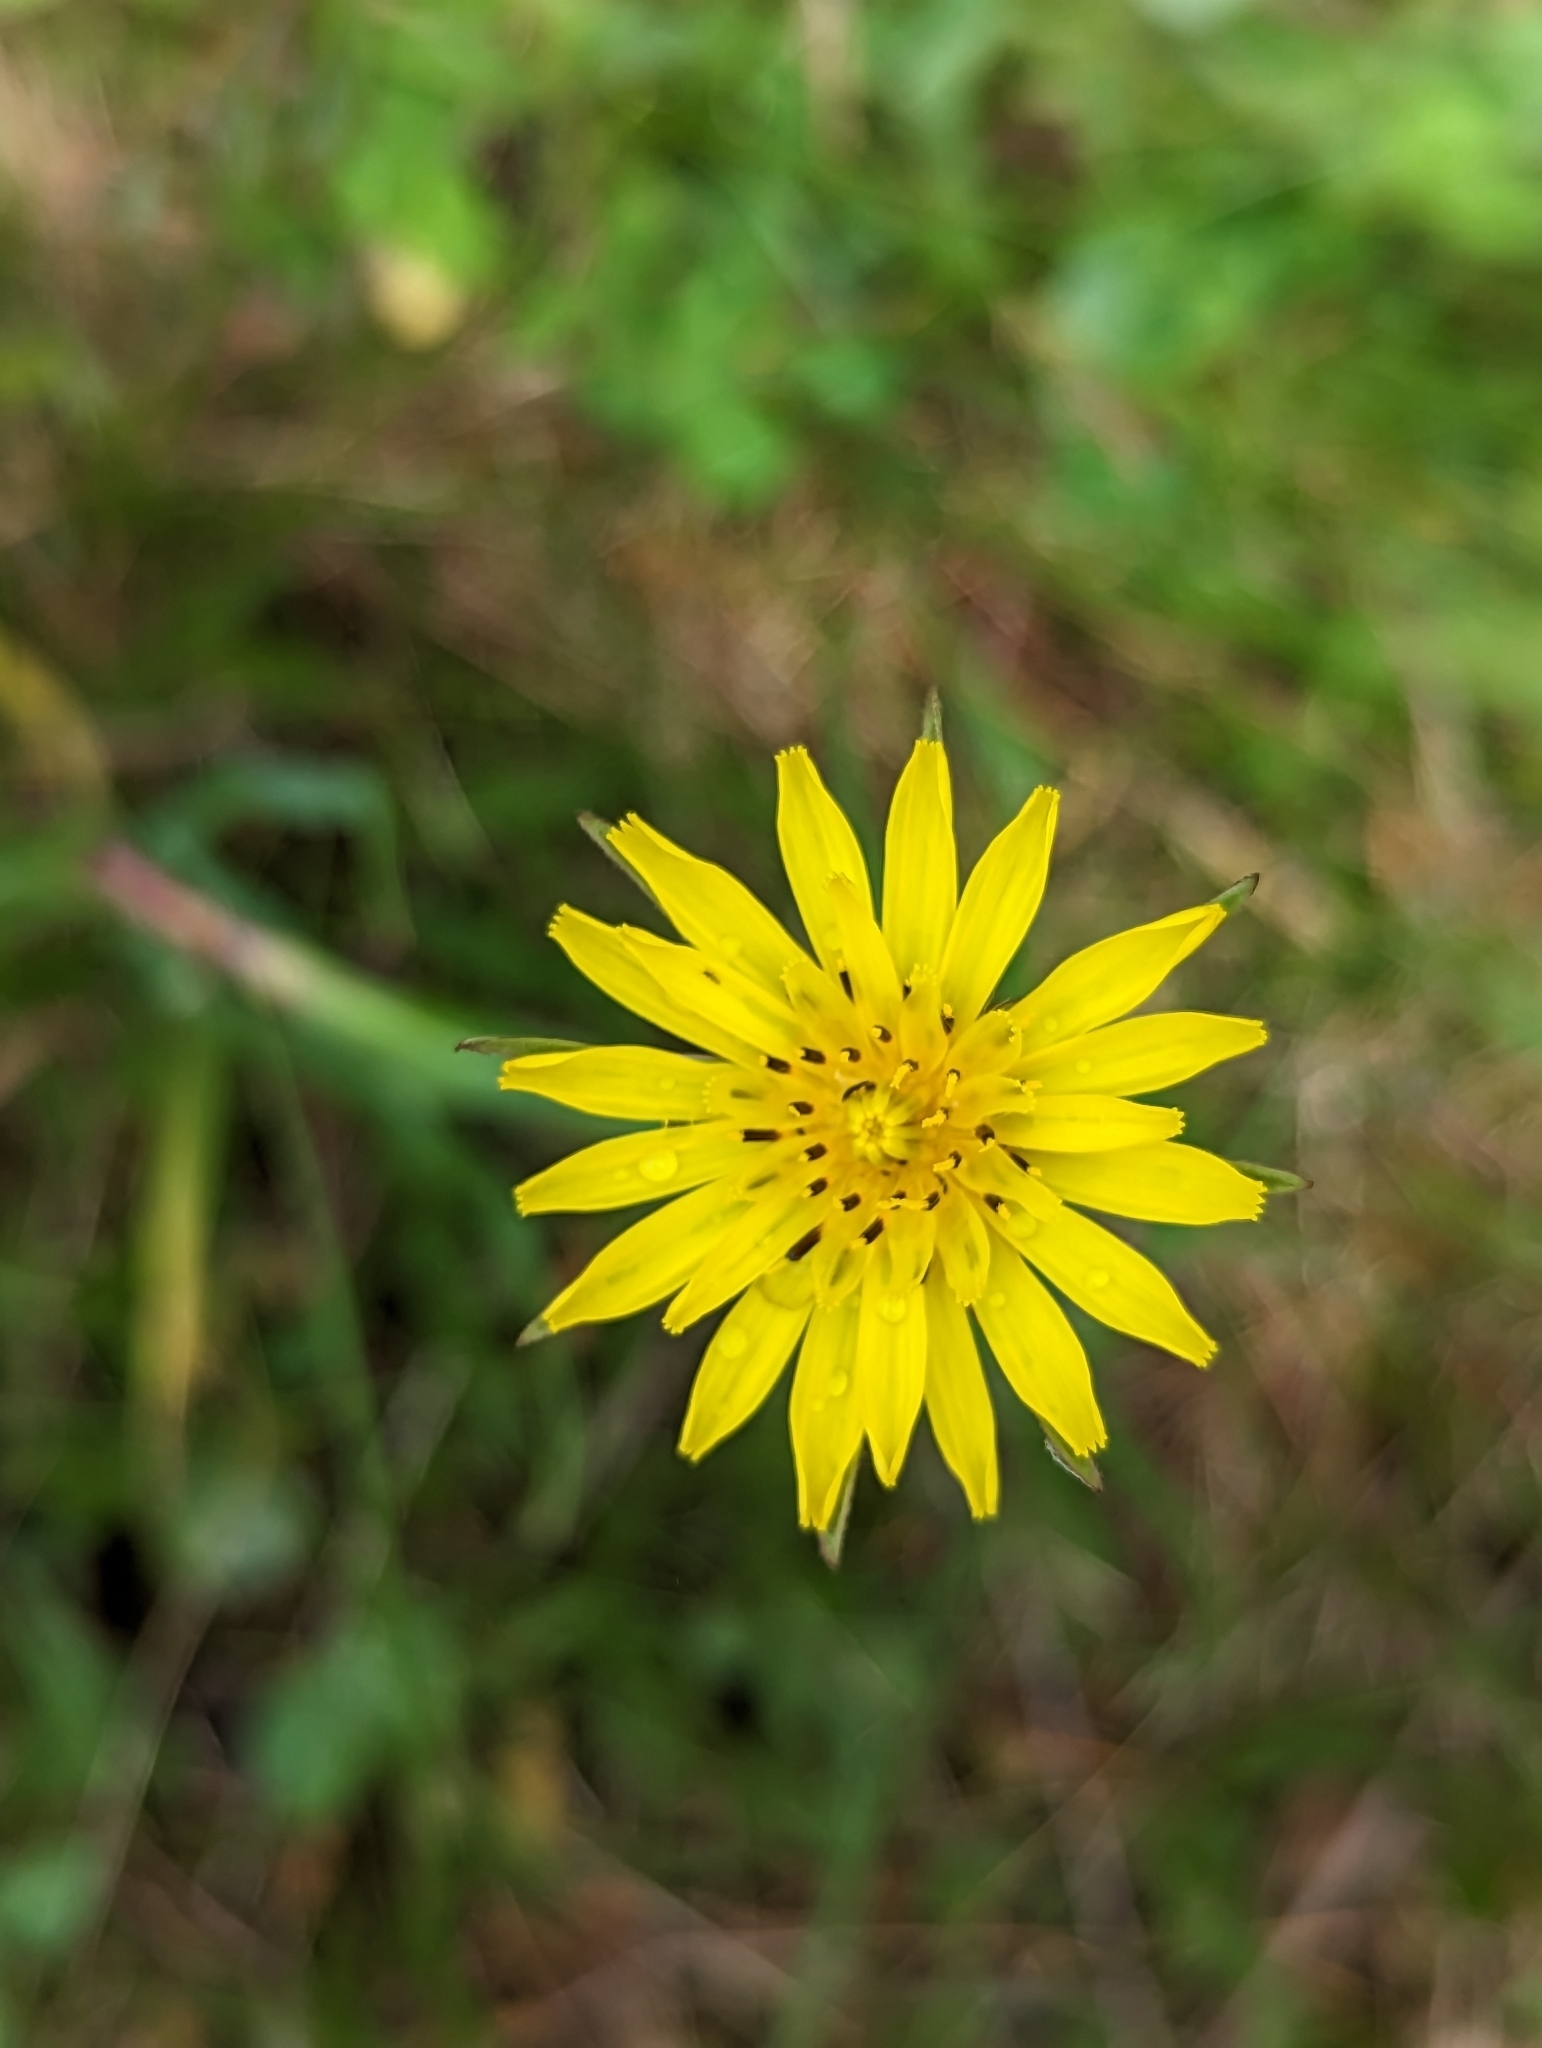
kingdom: Plantae
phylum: Tracheophyta
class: Magnoliopsida
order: Asterales
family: Asteraceae
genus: Tragopogon
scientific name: Tragopogon pratensis
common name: Goat's-beard
